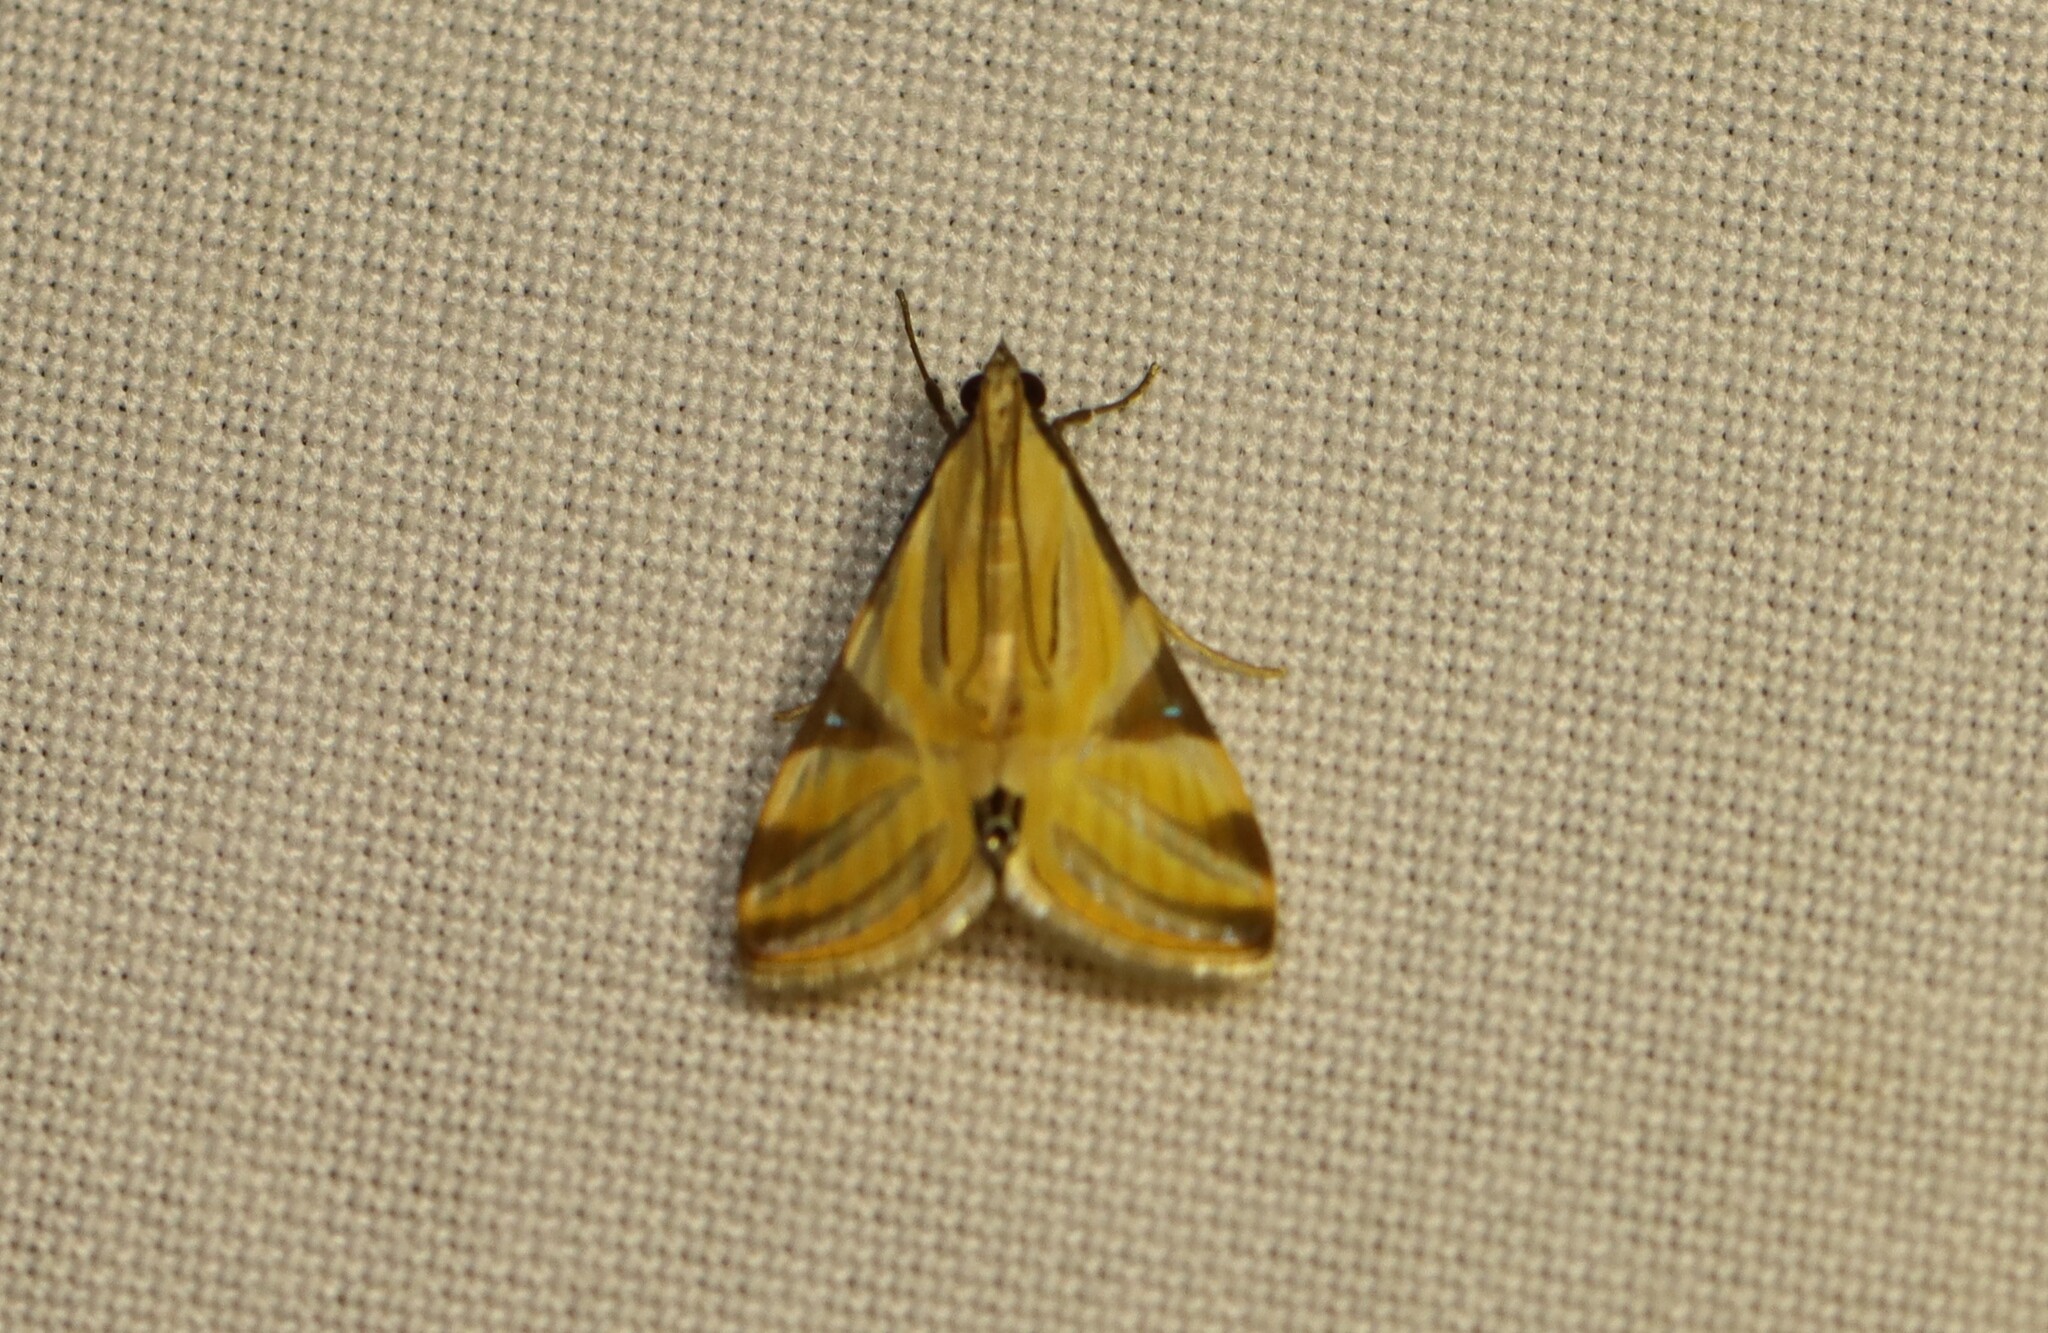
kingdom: Animalia
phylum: Arthropoda
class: Insecta
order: Lepidoptera
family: Crambidae
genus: Talanga
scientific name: Talanga sexpunctalis
